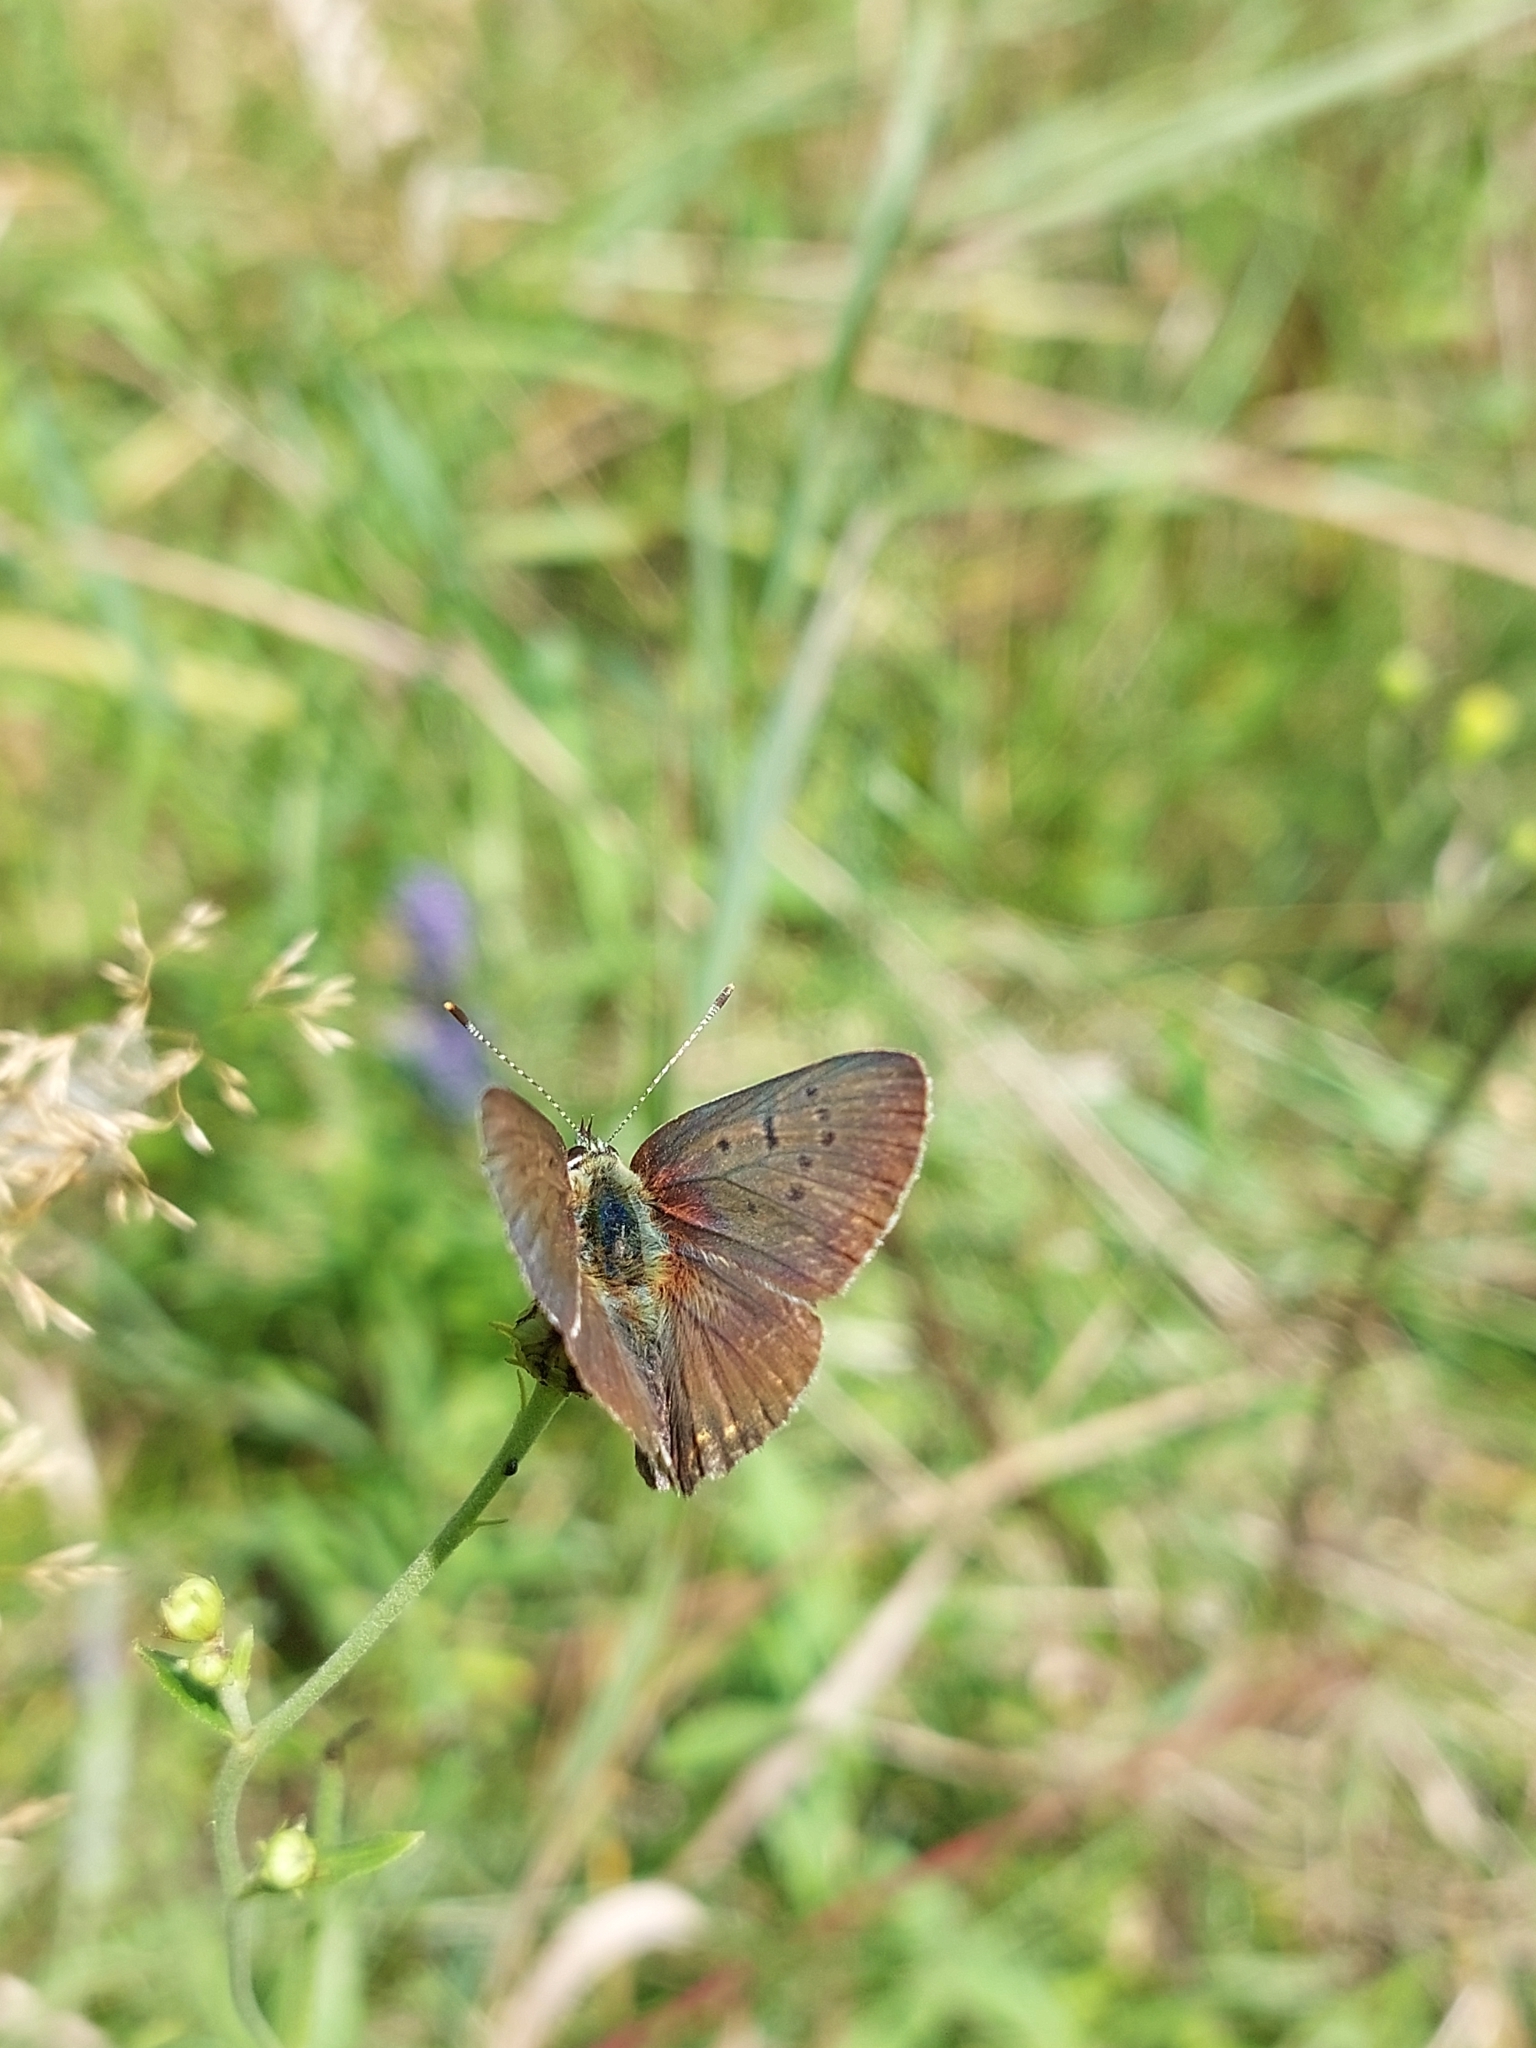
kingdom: Animalia
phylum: Arthropoda
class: Insecta
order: Lepidoptera
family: Lycaenidae
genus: Loweia
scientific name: Loweia tityrus
